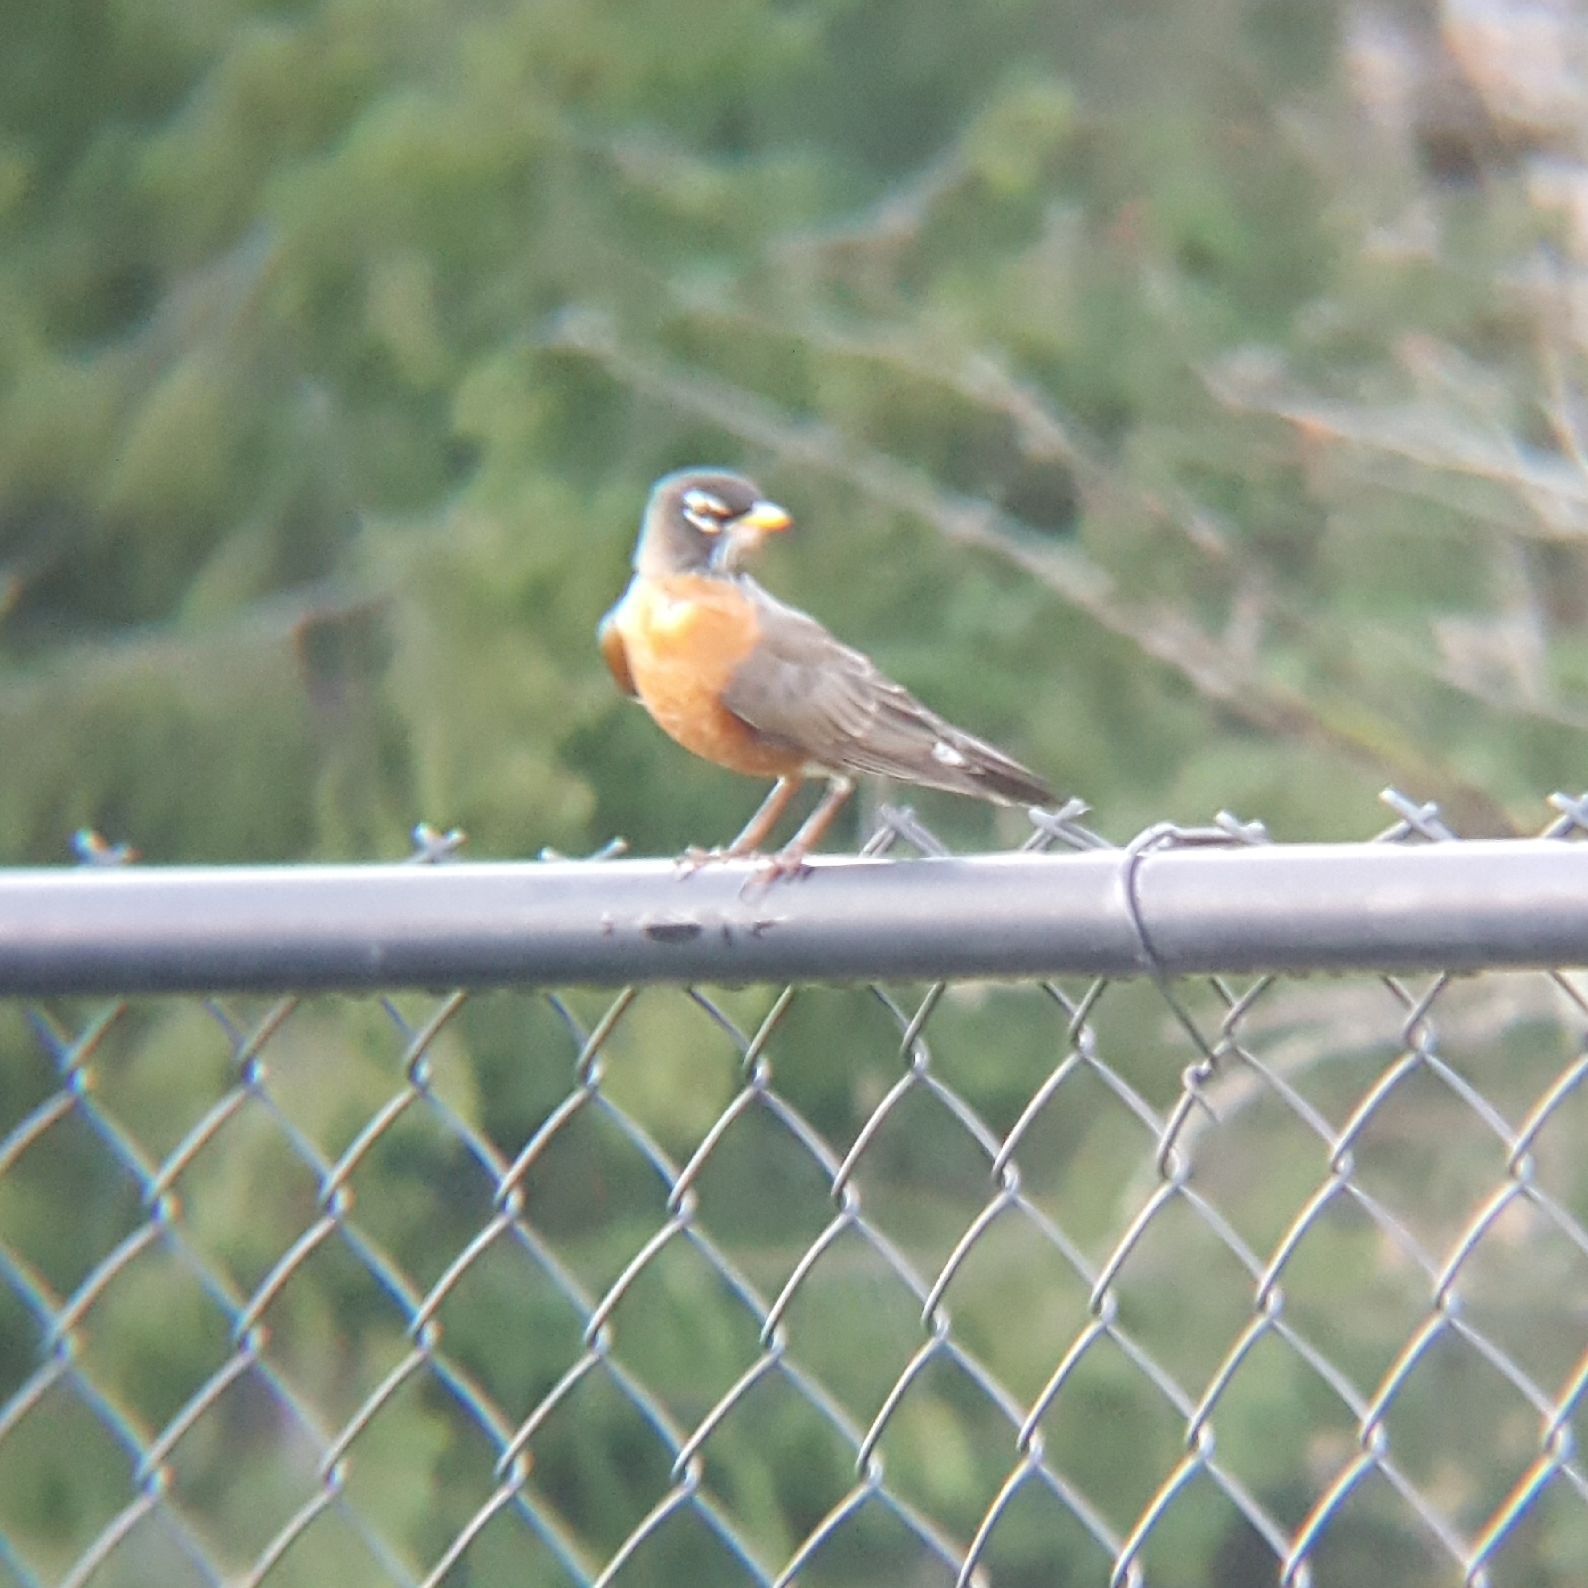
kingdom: Animalia
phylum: Chordata
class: Aves
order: Passeriformes
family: Turdidae
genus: Turdus
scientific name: Turdus migratorius
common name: American robin
